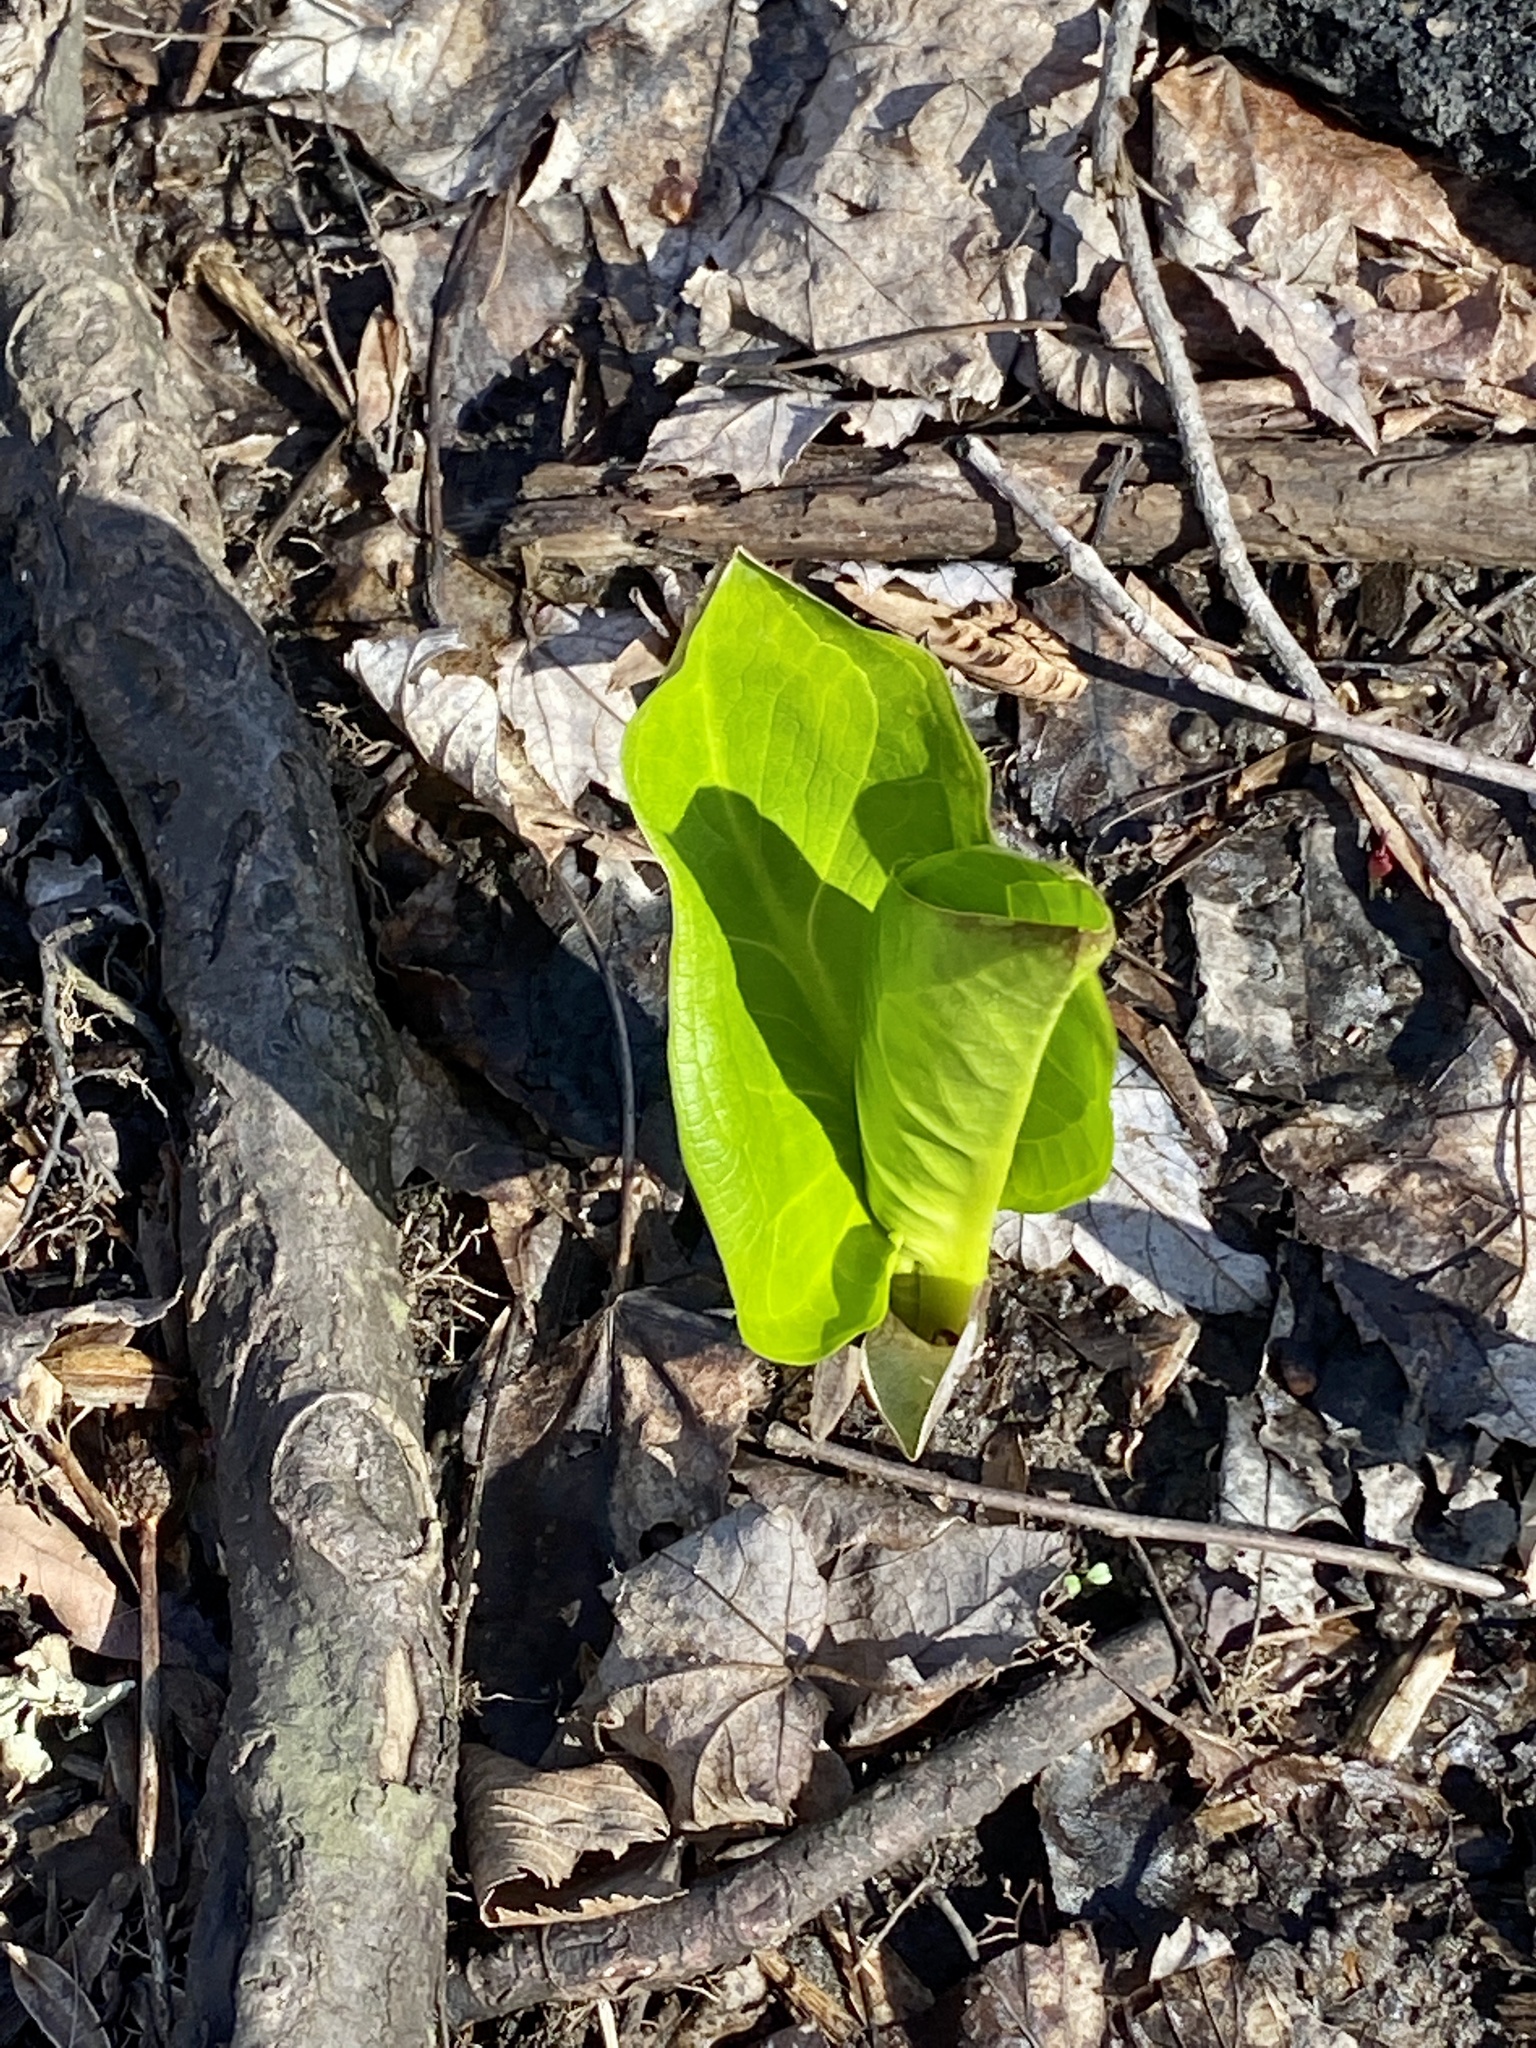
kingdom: Plantae
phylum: Tracheophyta
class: Liliopsida
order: Alismatales
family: Araceae
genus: Symplocarpus
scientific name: Symplocarpus foetidus
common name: Eastern skunk cabbage
